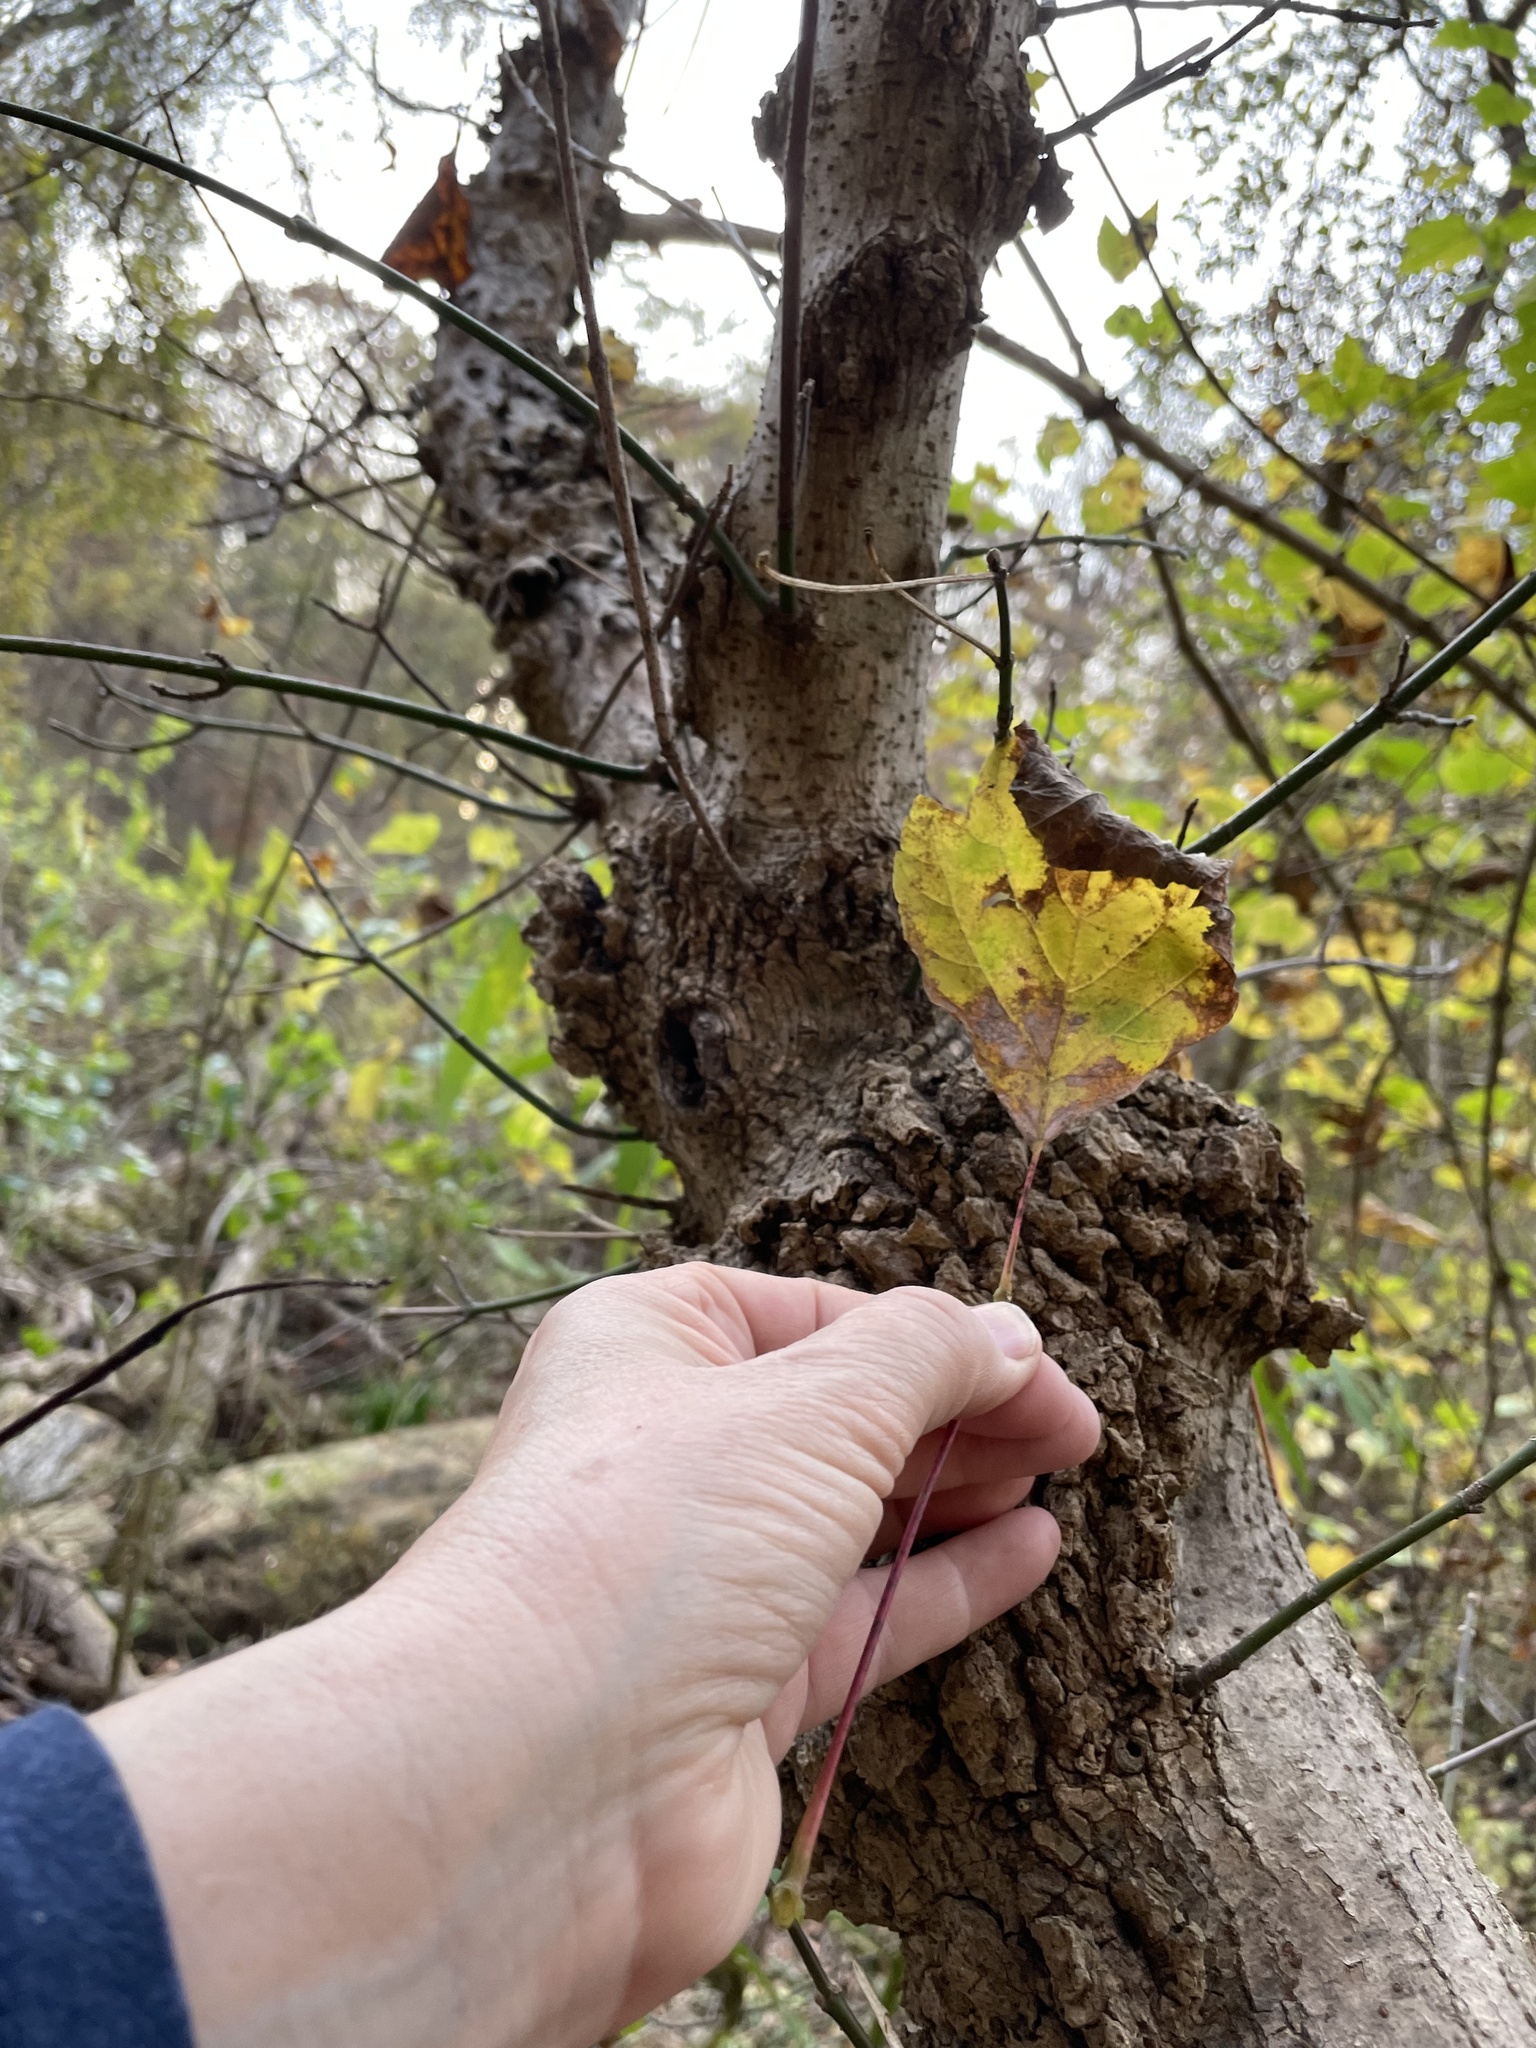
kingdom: Plantae
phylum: Tracheophyta
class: Magnoliopsida
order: Sapindales
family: Sapindaceae
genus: Acer
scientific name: Acer negundo
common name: Ashleaf maple
